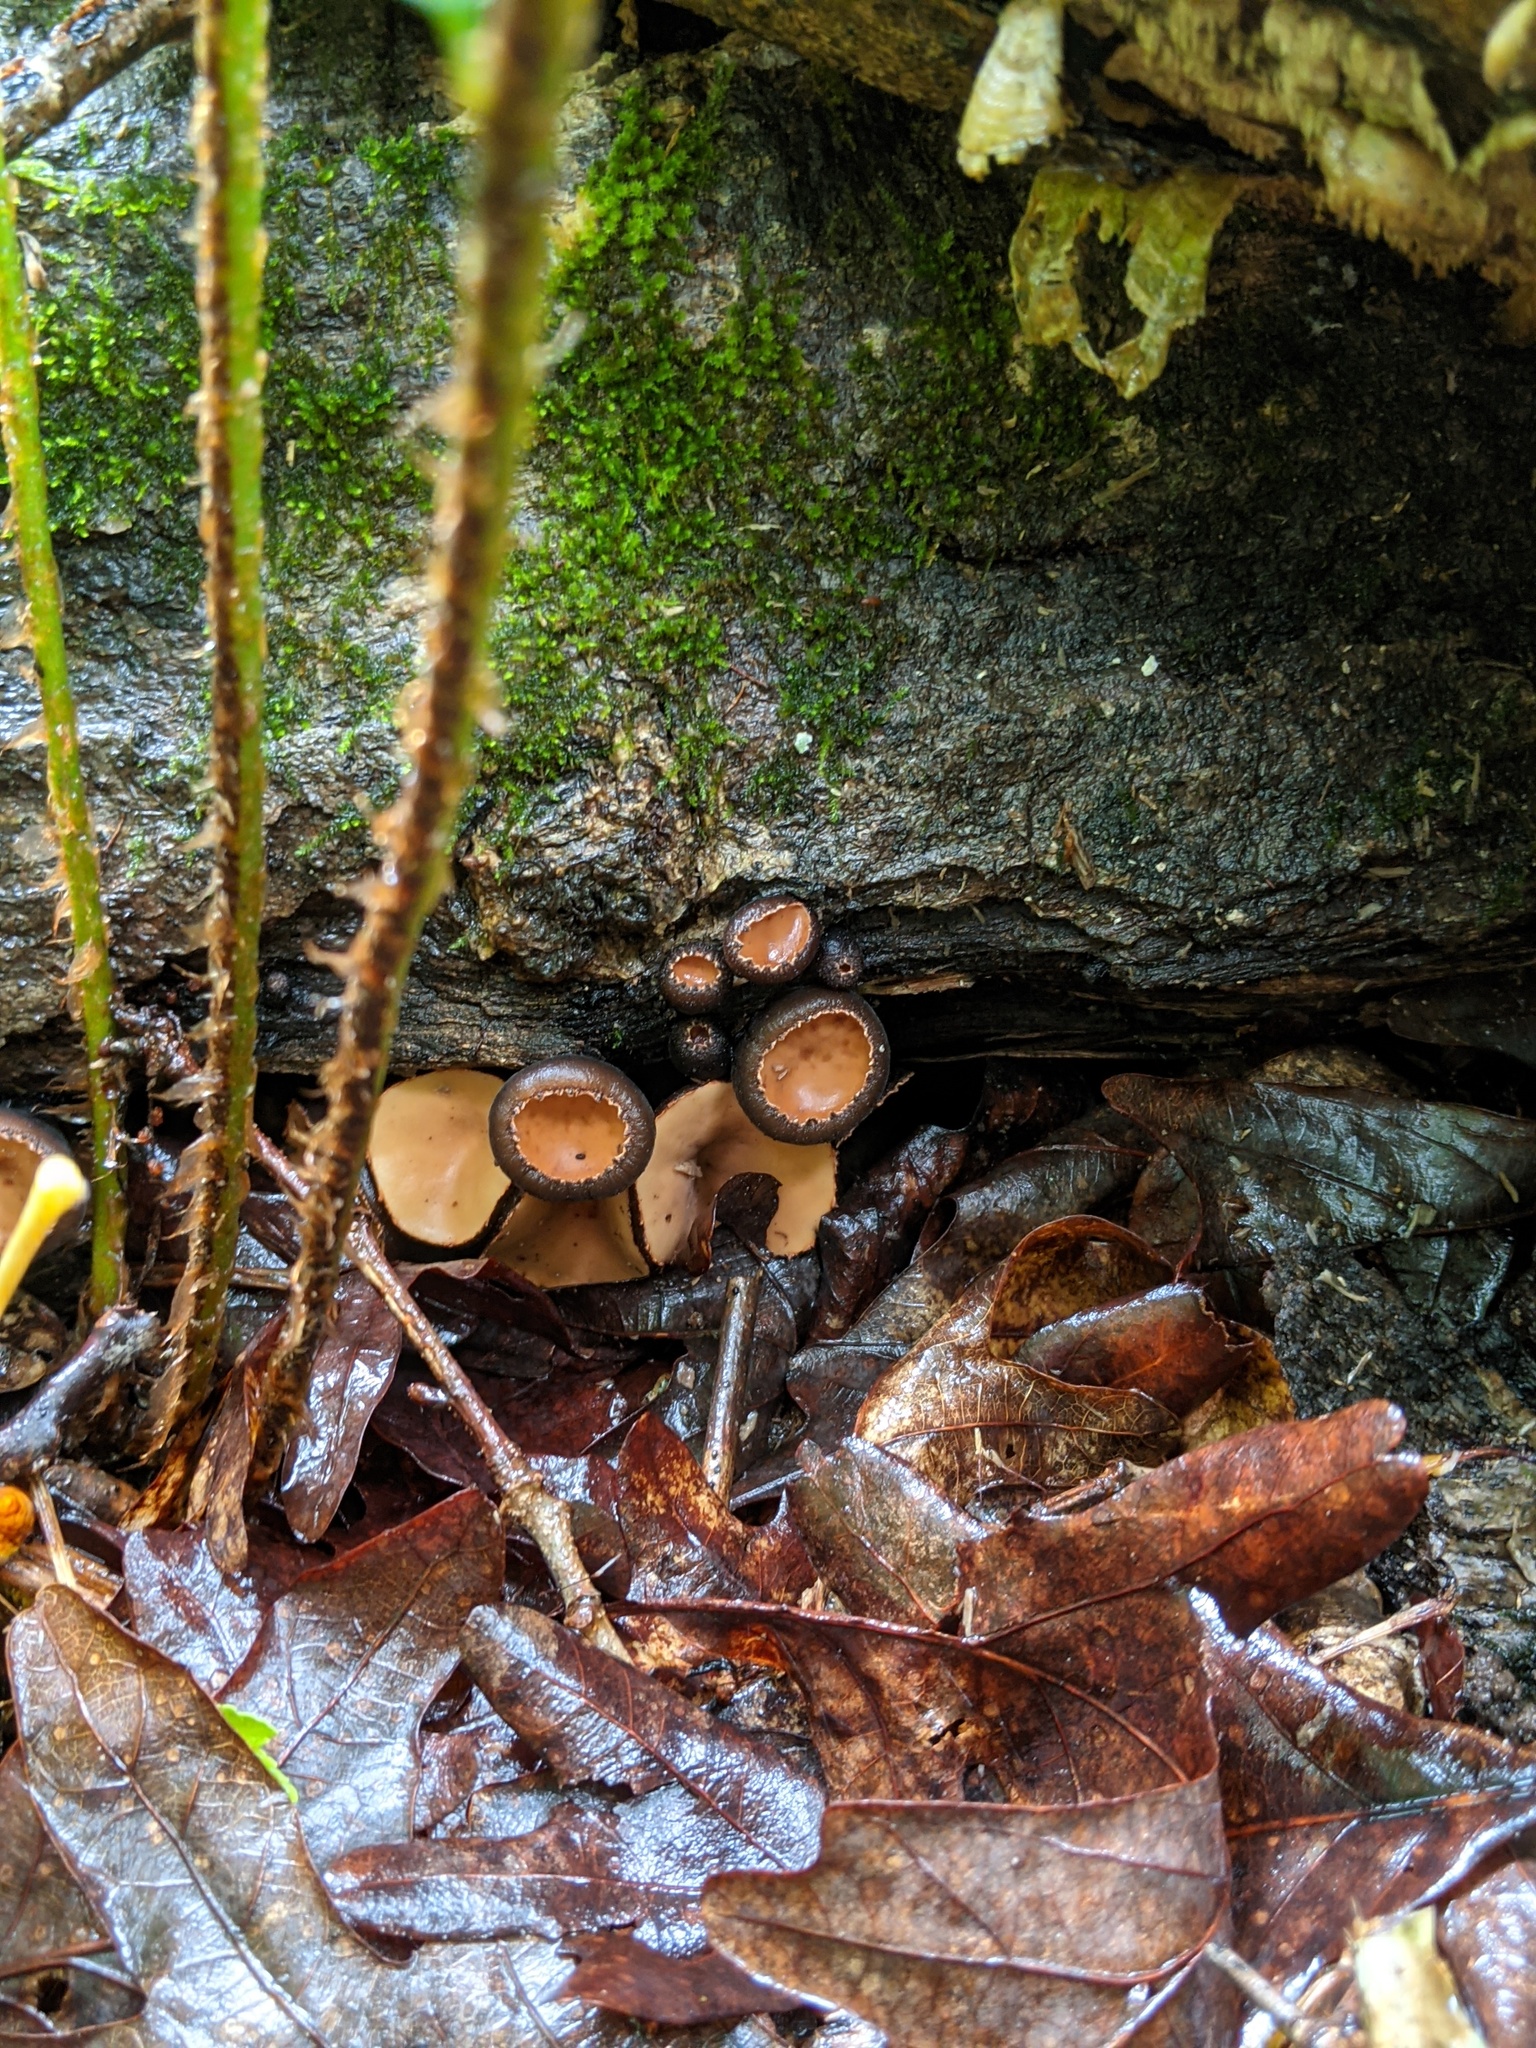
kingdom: Fungi
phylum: Ascomycota
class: Pezizomycetes
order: Pezizales
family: Sarcosomataceae
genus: Galiella
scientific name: Galiella rufa
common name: Hairy rubber cup
